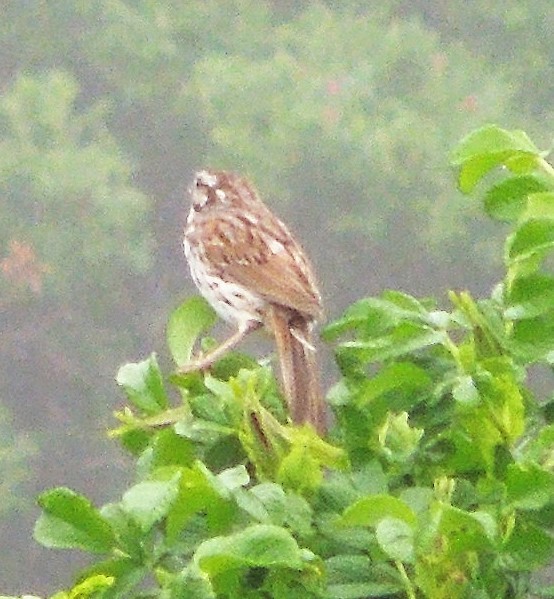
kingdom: Animalia
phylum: Chordata
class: Aves
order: Passeriformes
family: Passerellidae
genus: Melospiza
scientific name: Melospiza melodia
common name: Song sparrow
